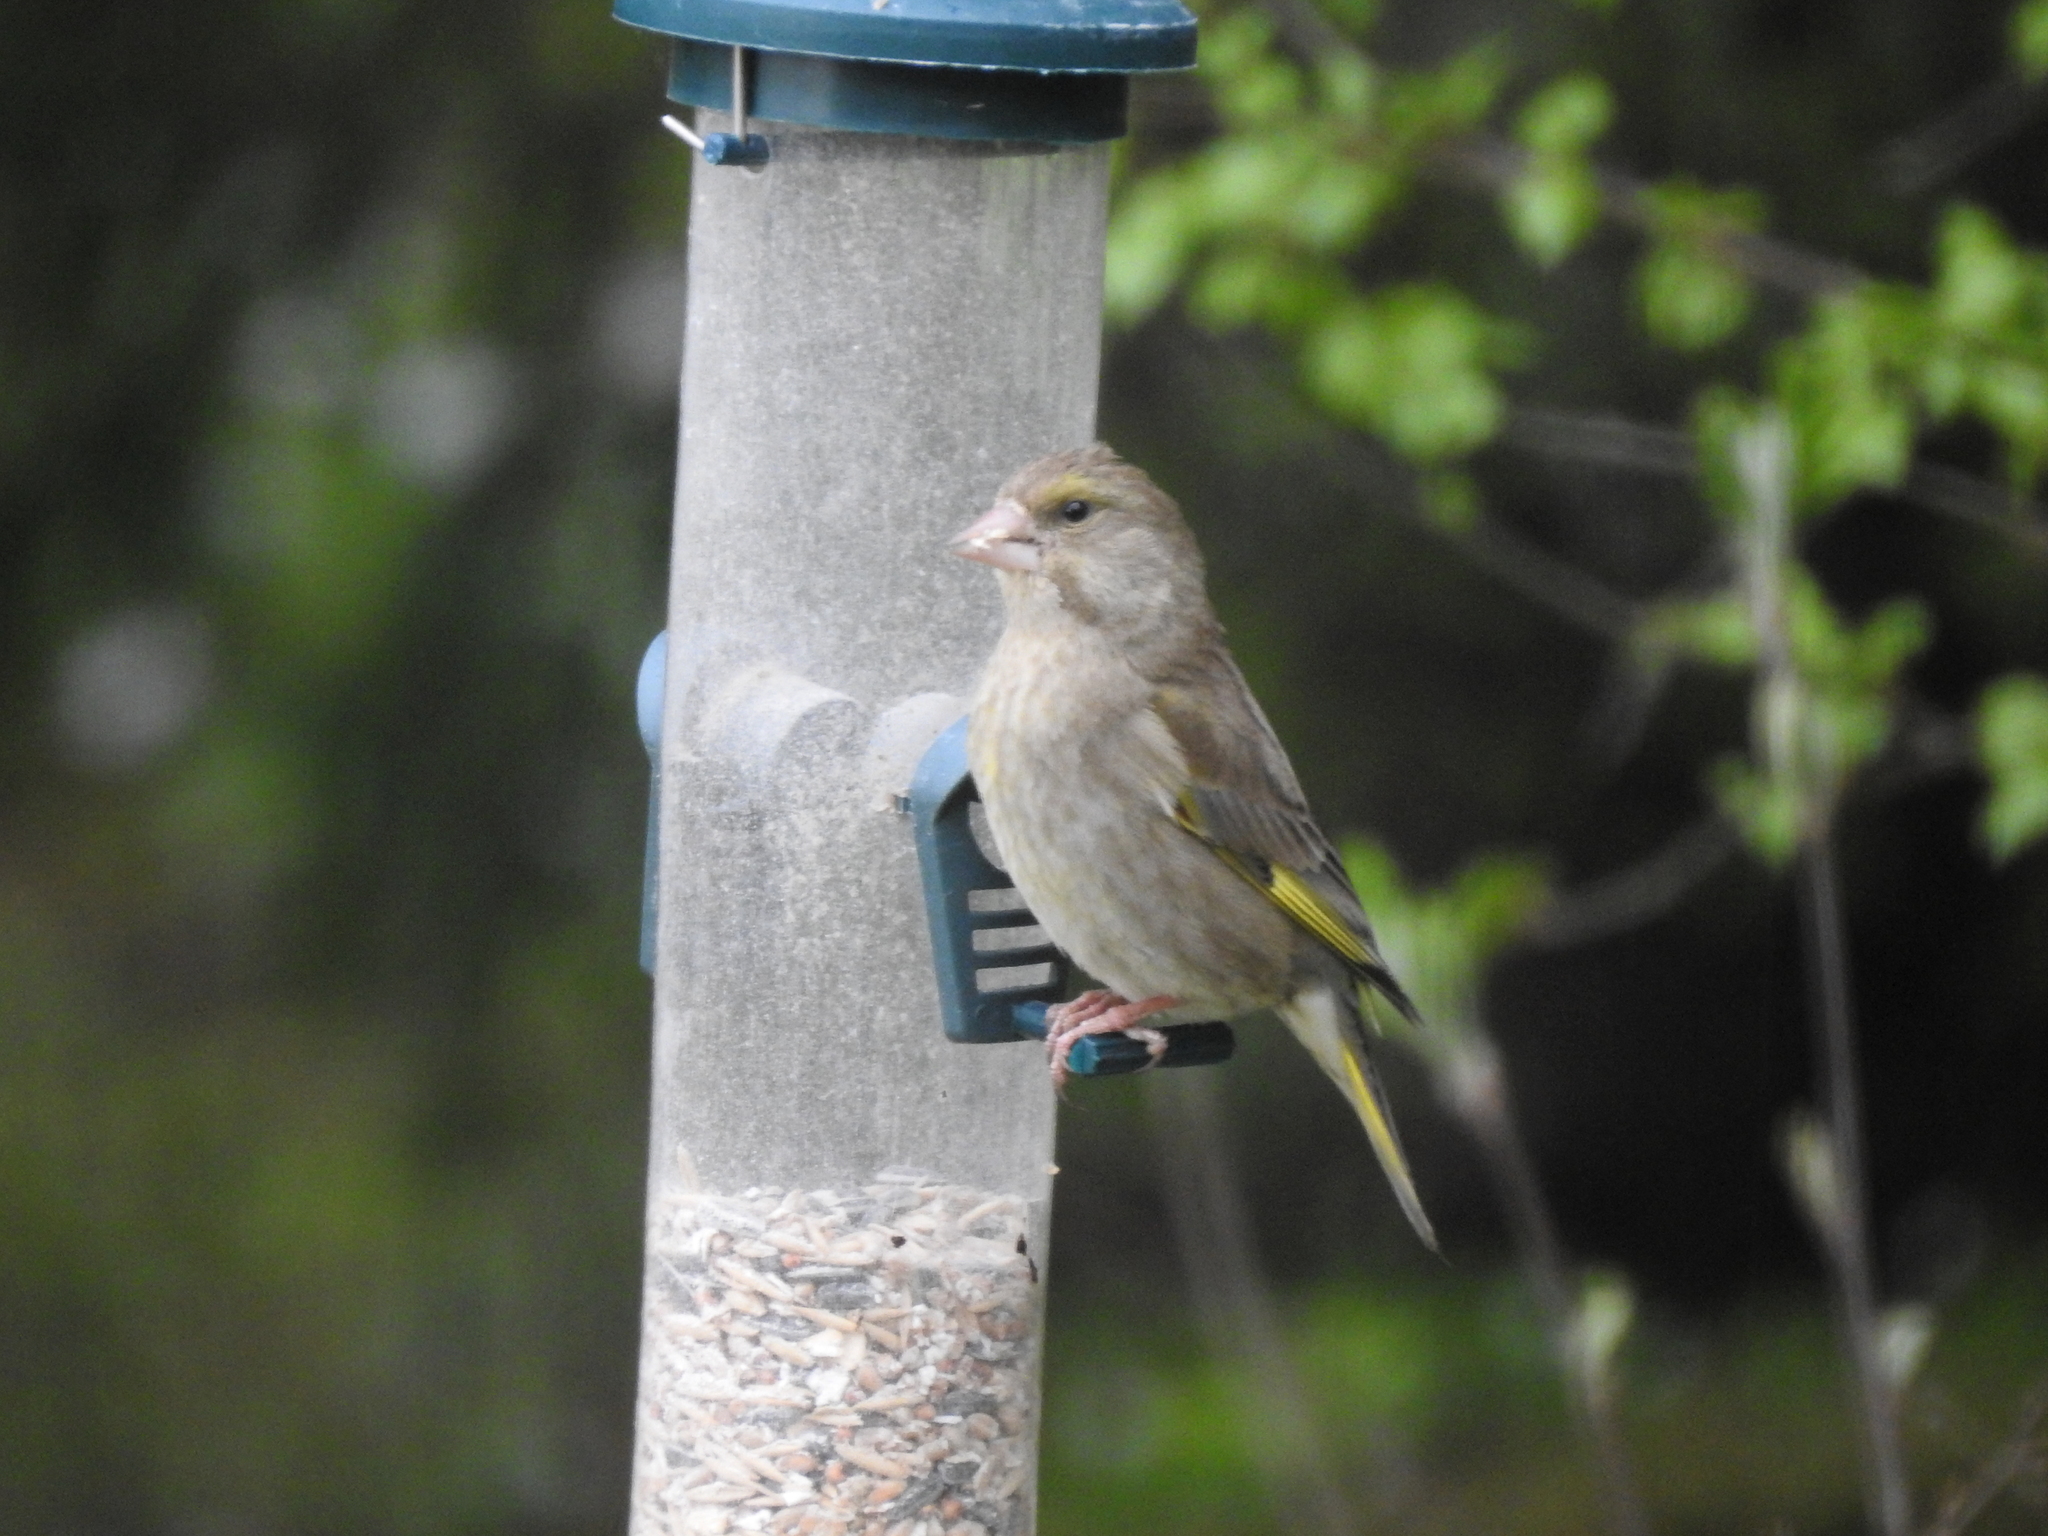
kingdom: Plantae
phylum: Tracheophyta
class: Liliopsida
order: Poales
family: Poaceae
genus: Chloris
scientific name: Chloris chloris
